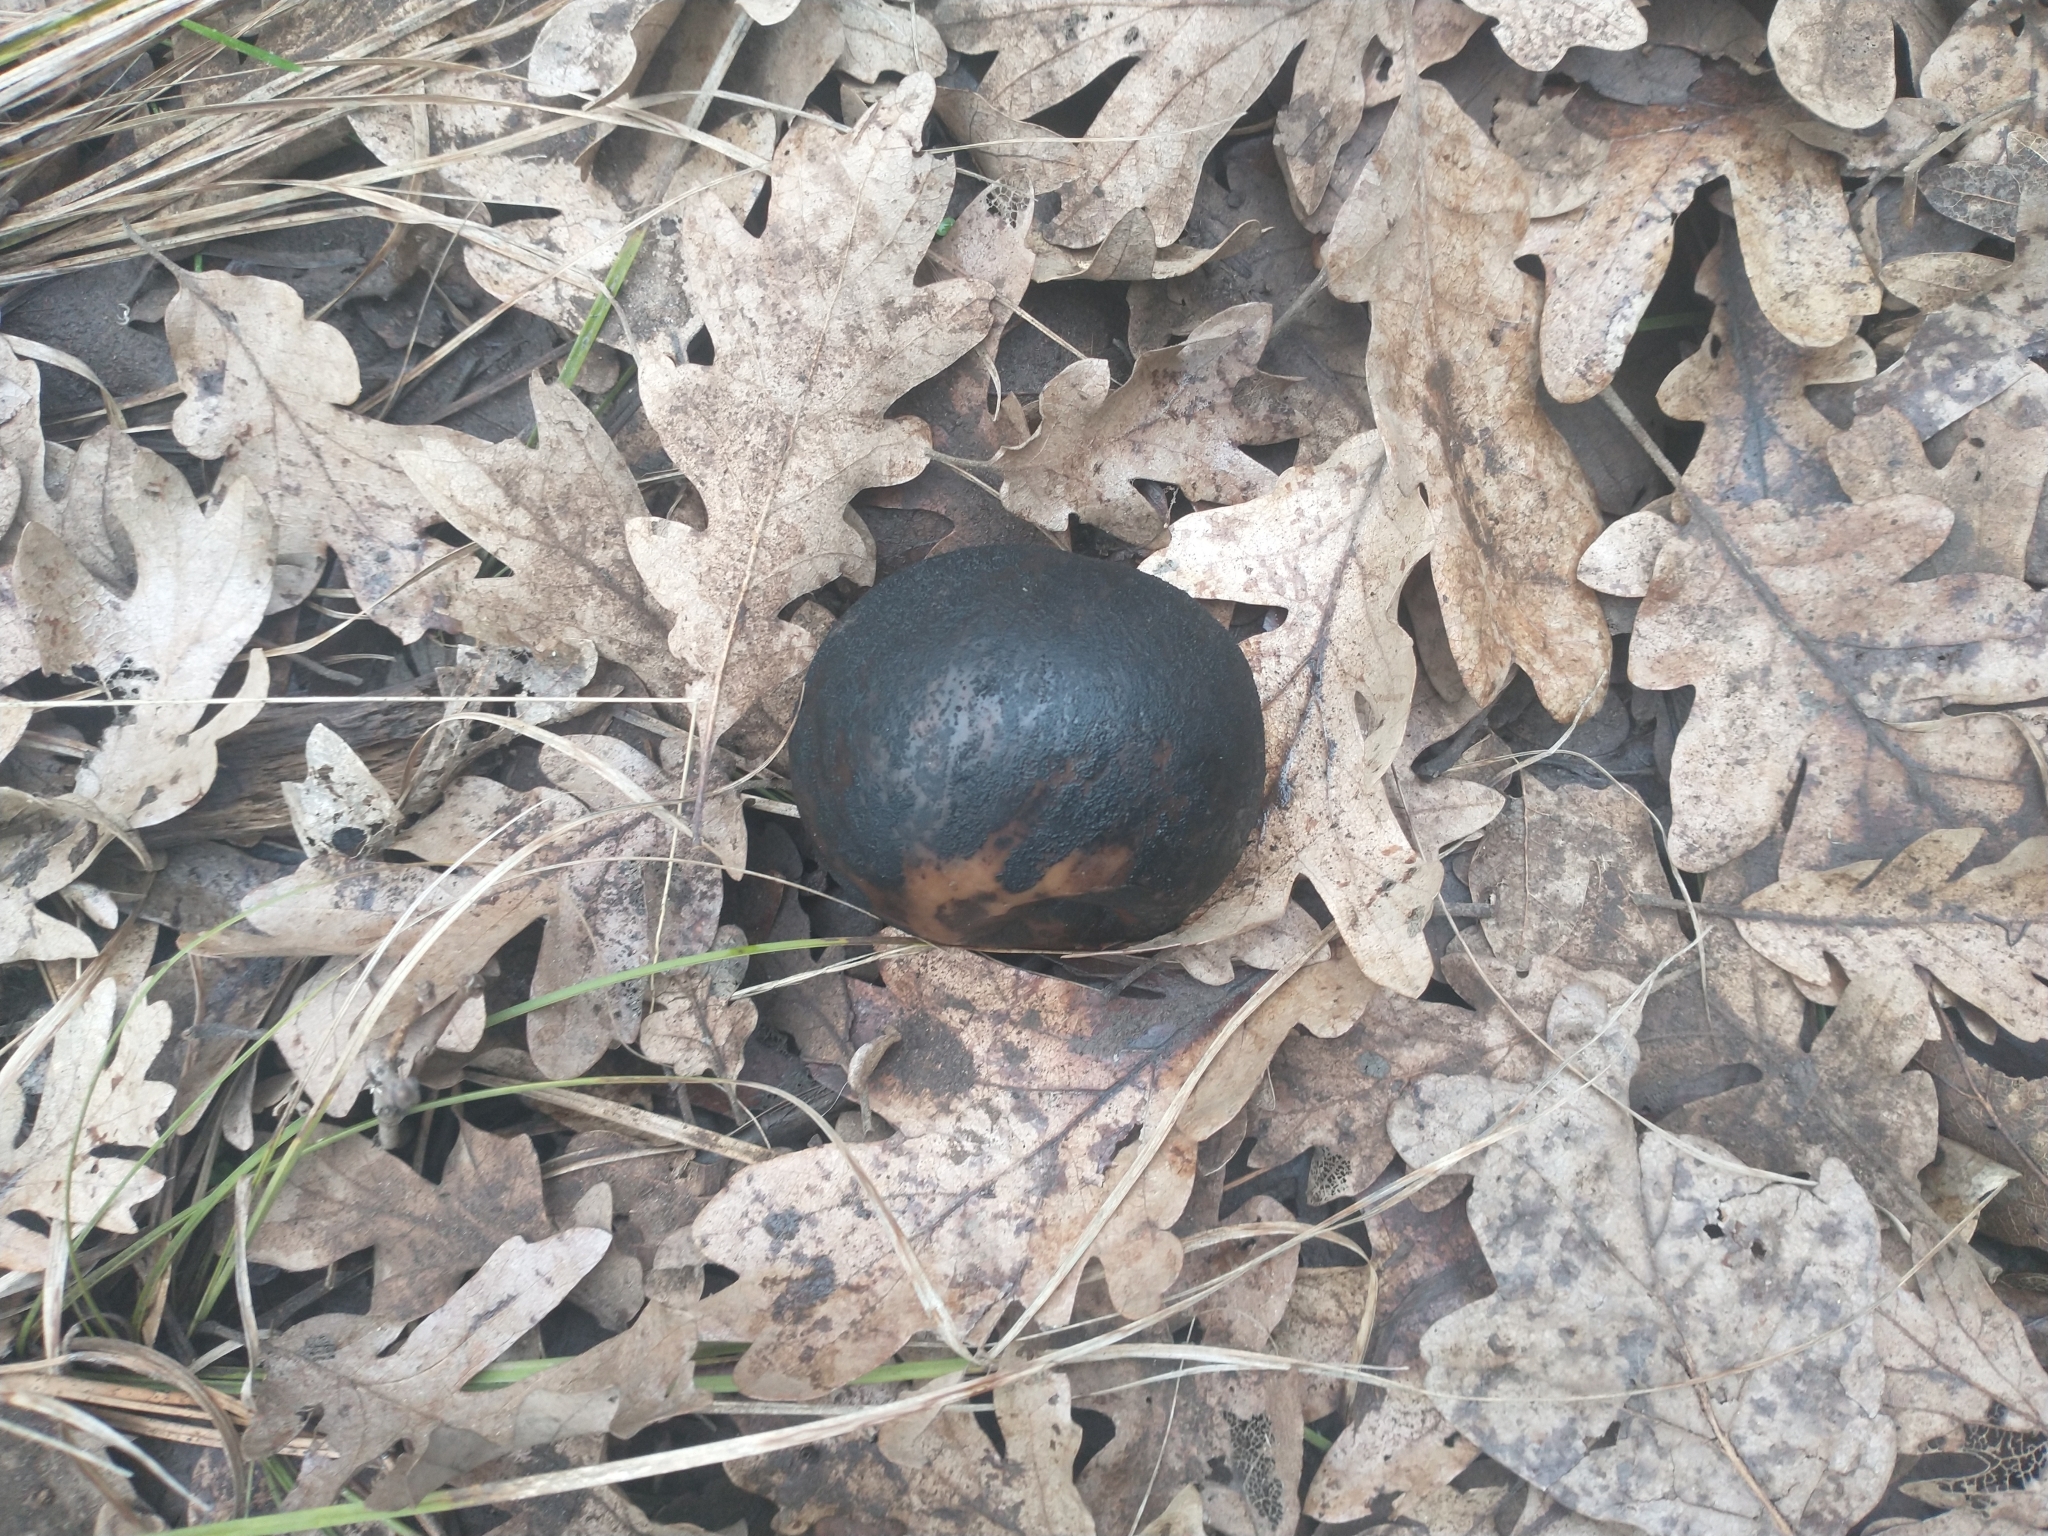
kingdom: Plantae
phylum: Tracheophyta
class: Magnoliopsida
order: Fagales
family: Fagaceae
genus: Quercus
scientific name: Quercus garryana
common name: Garry oak
